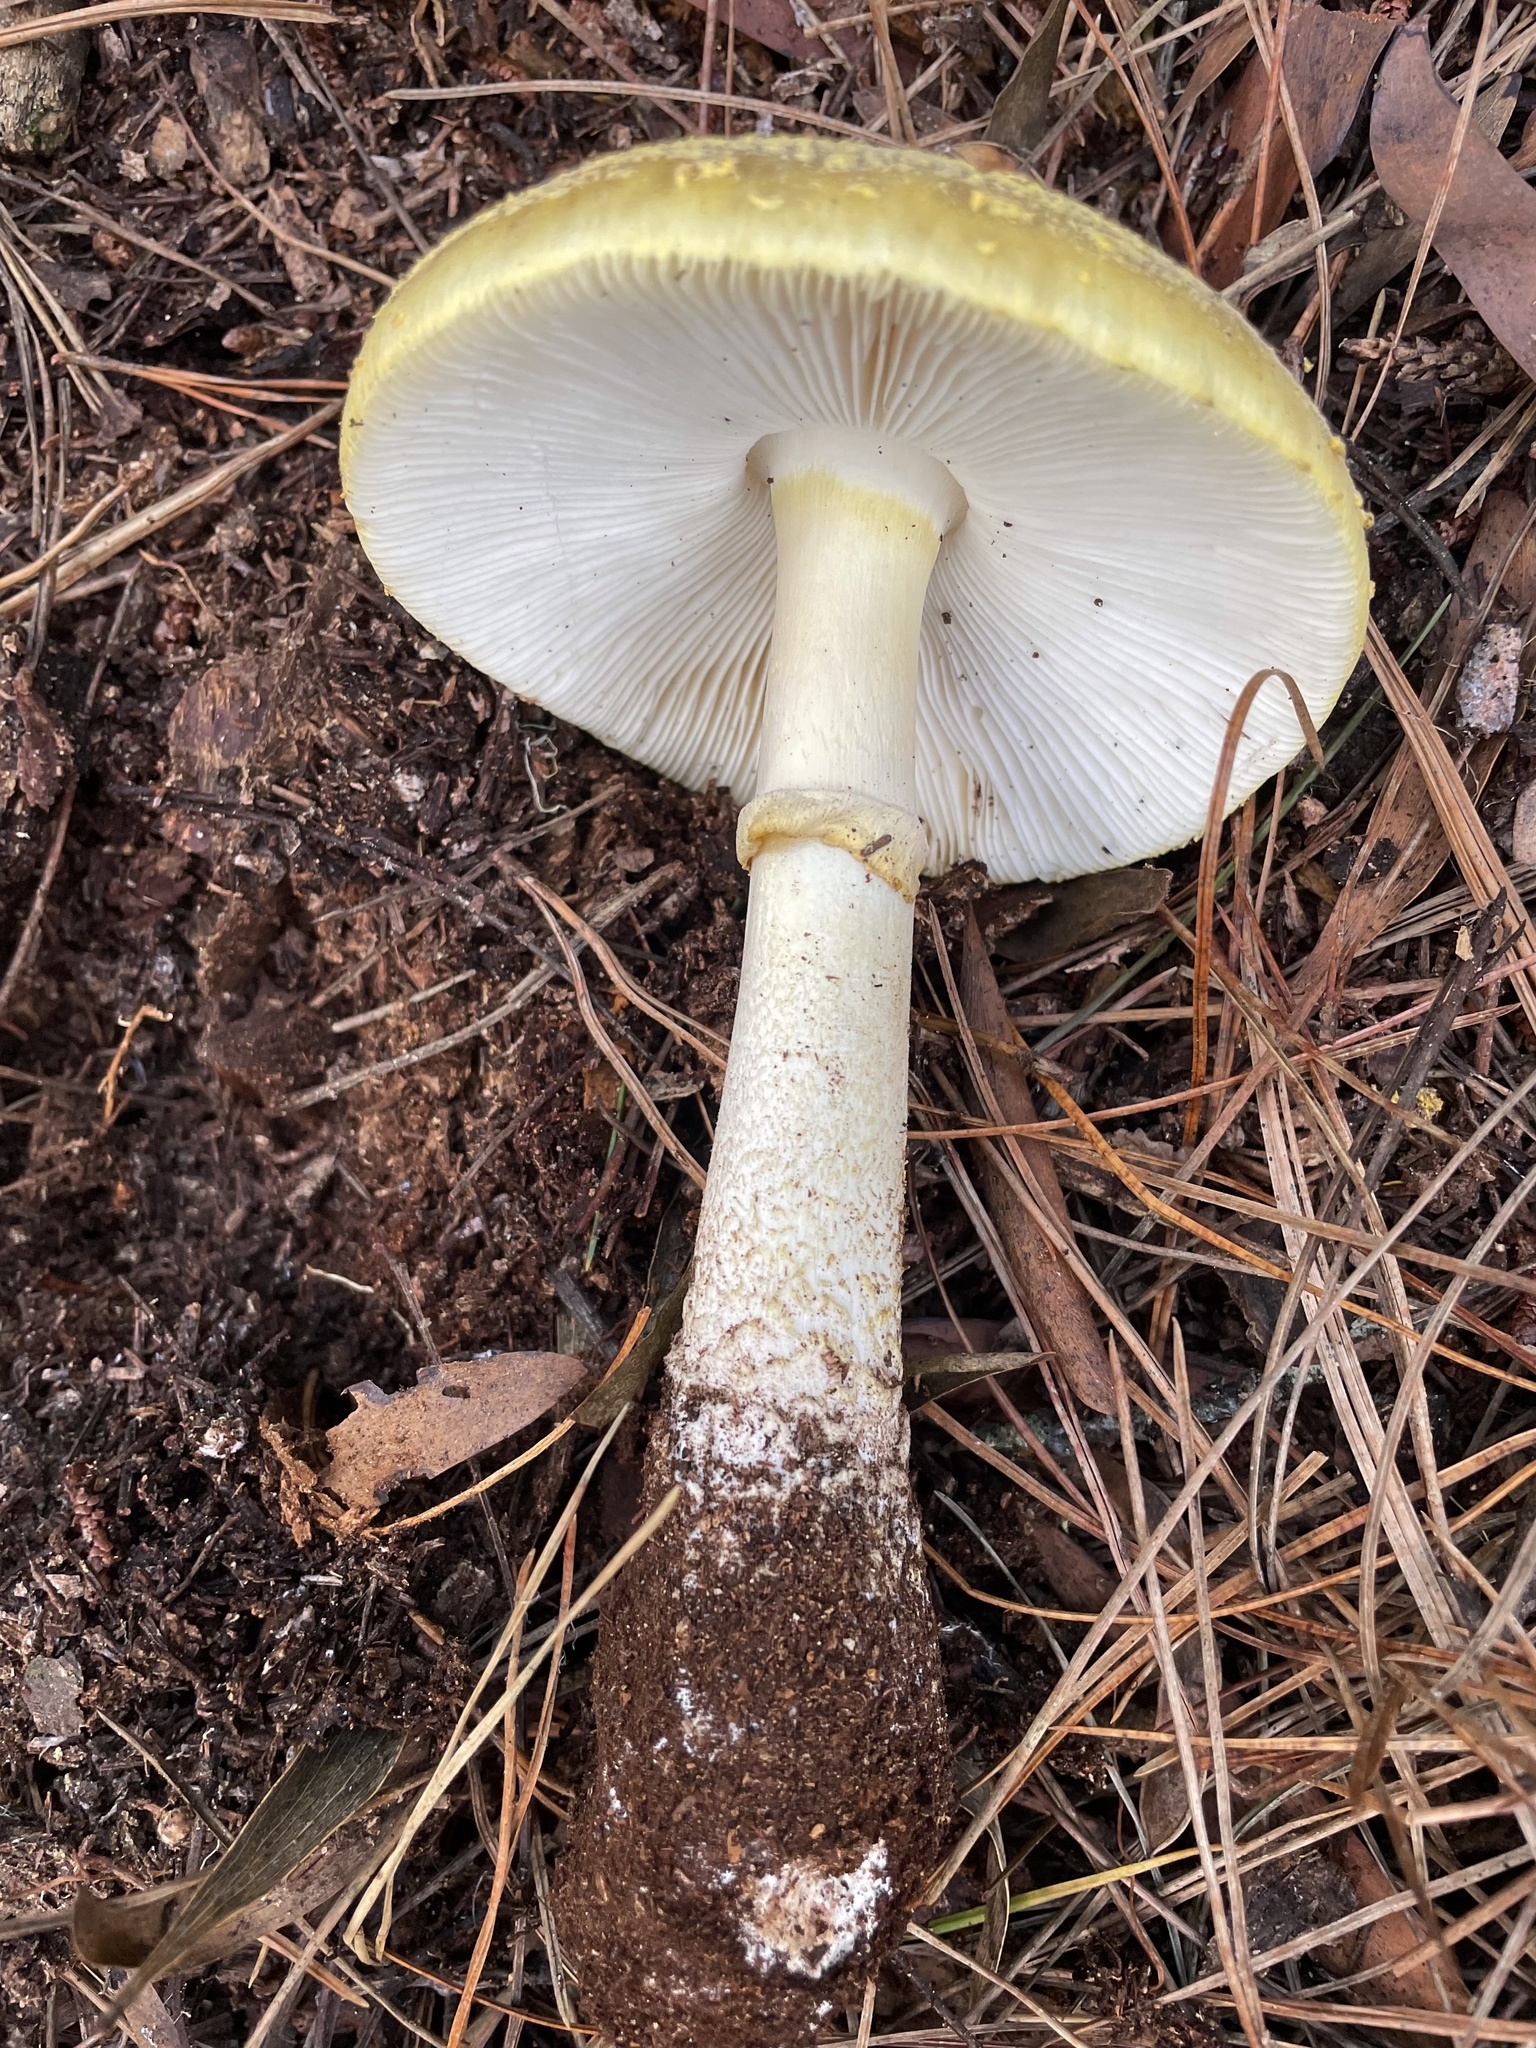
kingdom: Fungi
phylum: Basidiomycota
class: Agaricomycetes
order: Agaricales
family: Amanitaceae
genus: Amanita
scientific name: Amanita augusta
